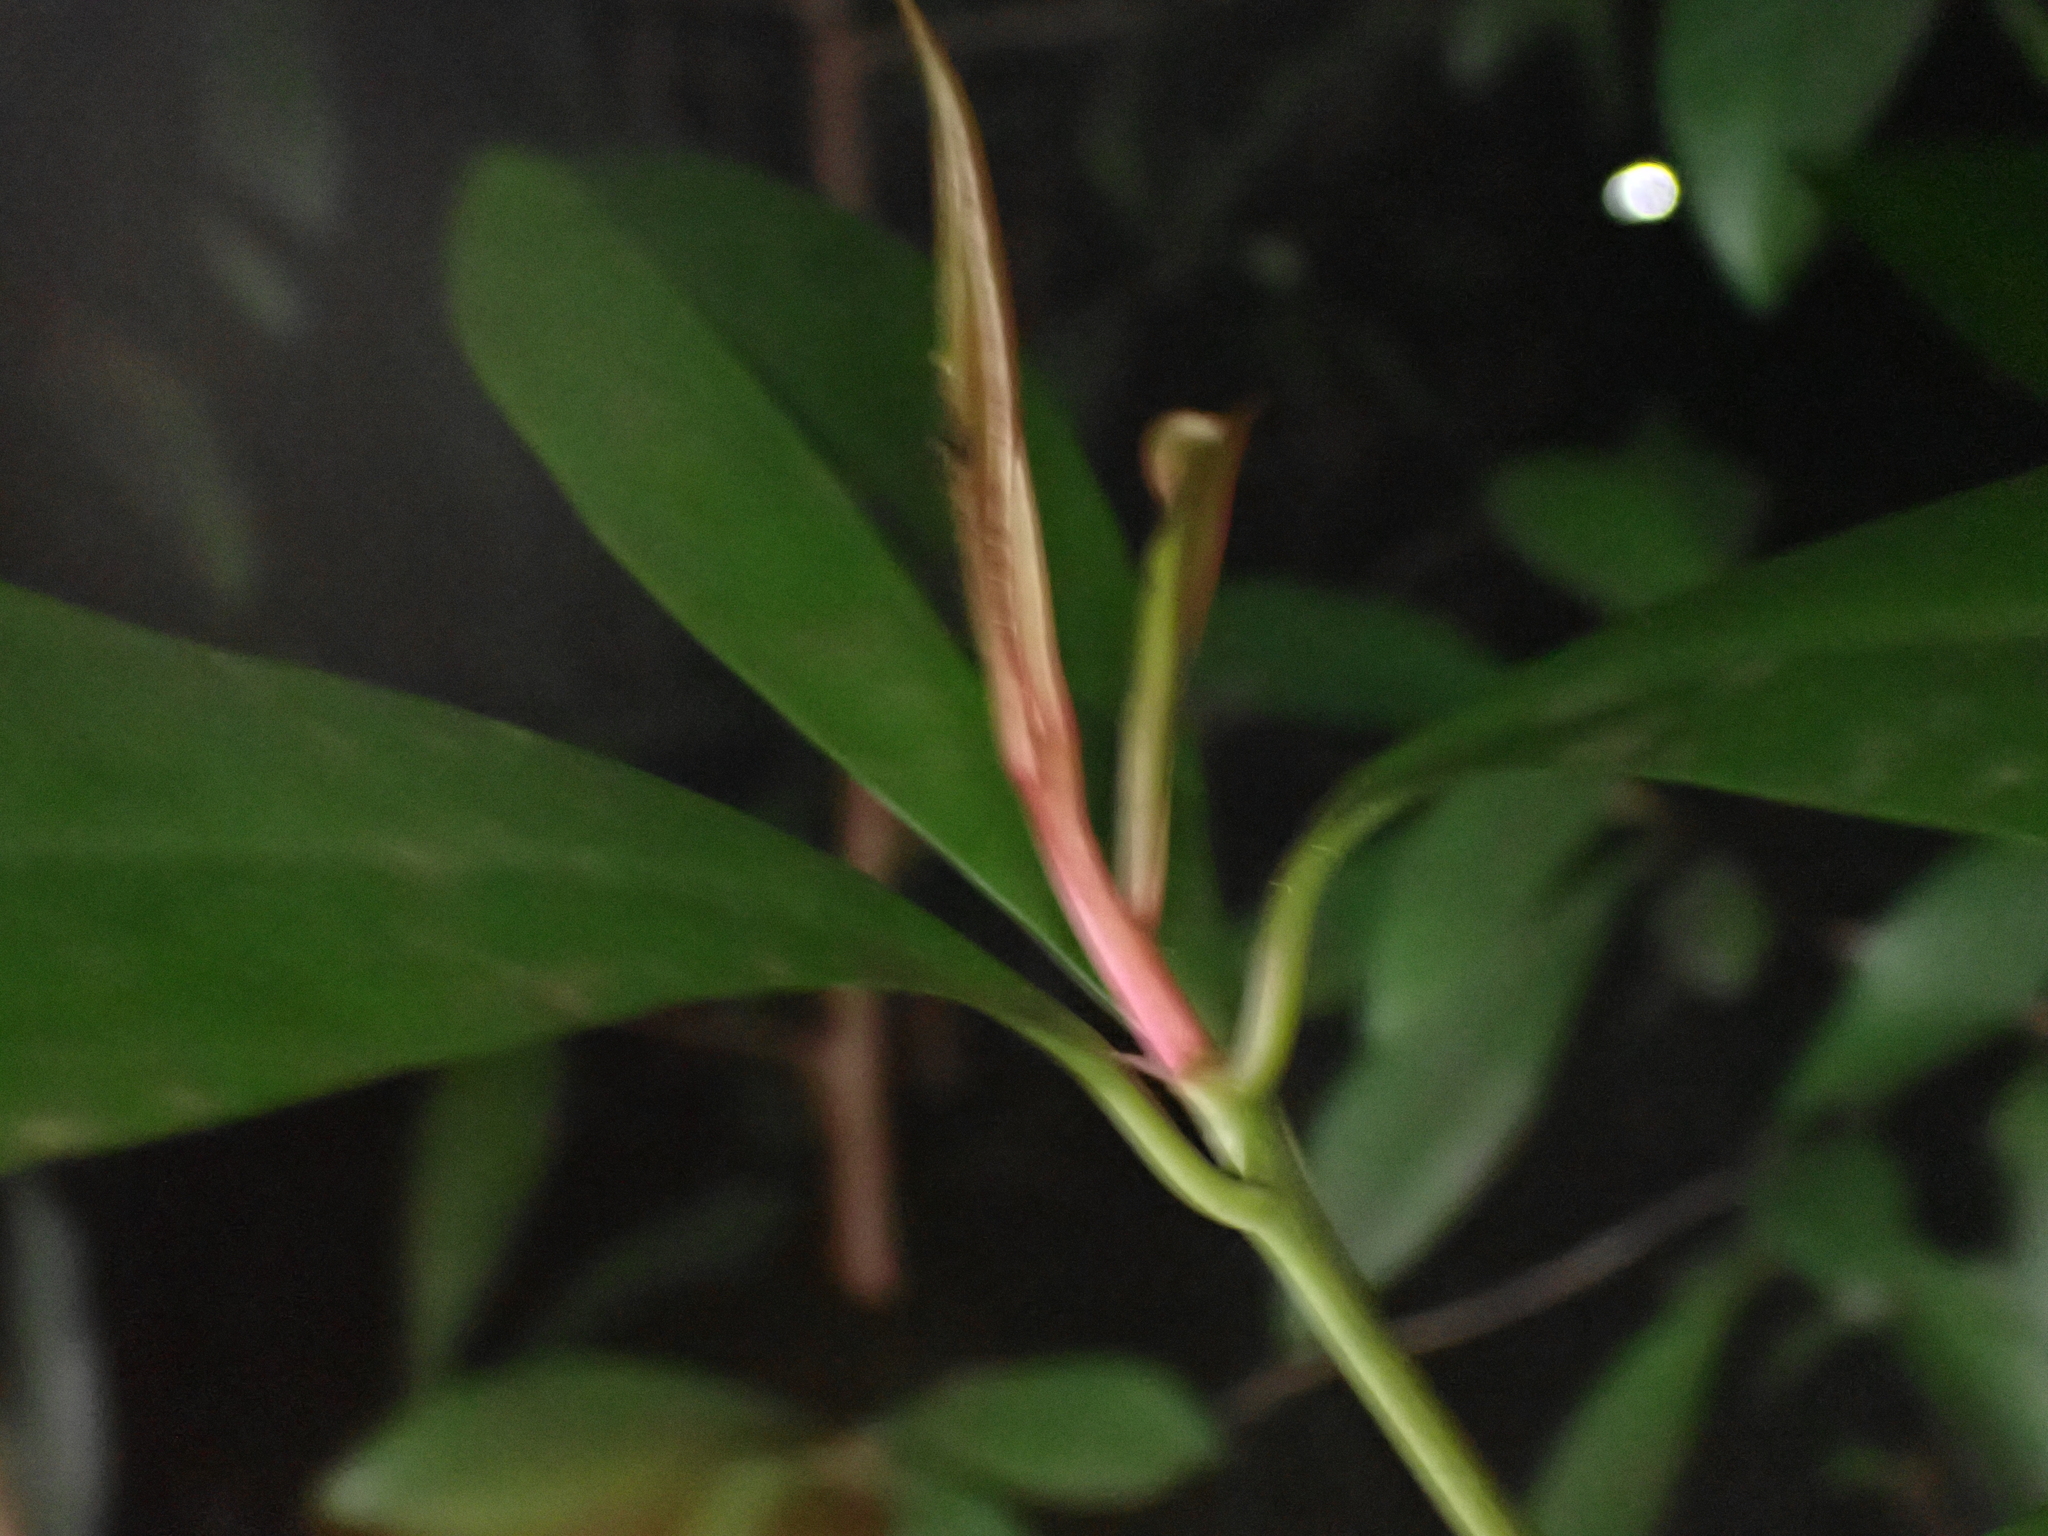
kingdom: Plantae
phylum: Tracheophyta
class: Magnoliopsida
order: Ericales
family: Primulaceae
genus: Ardisia
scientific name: Ardisia elliptica
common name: Shoebutton
